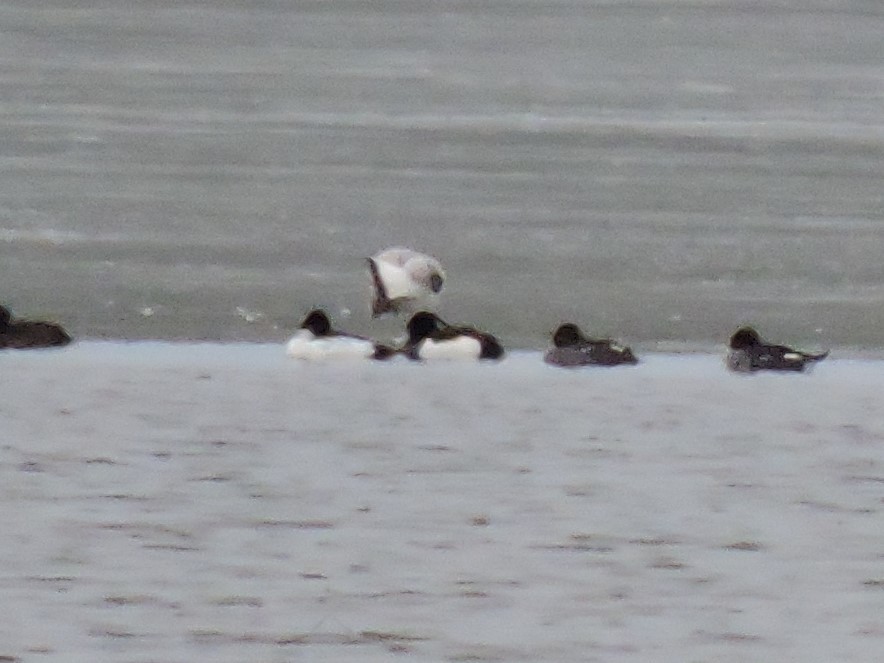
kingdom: Animalia
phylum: Chordata
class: Aves
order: Anseriformes
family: Anatidae
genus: Aythya
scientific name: Aythya fuligula
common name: Tufted duck
